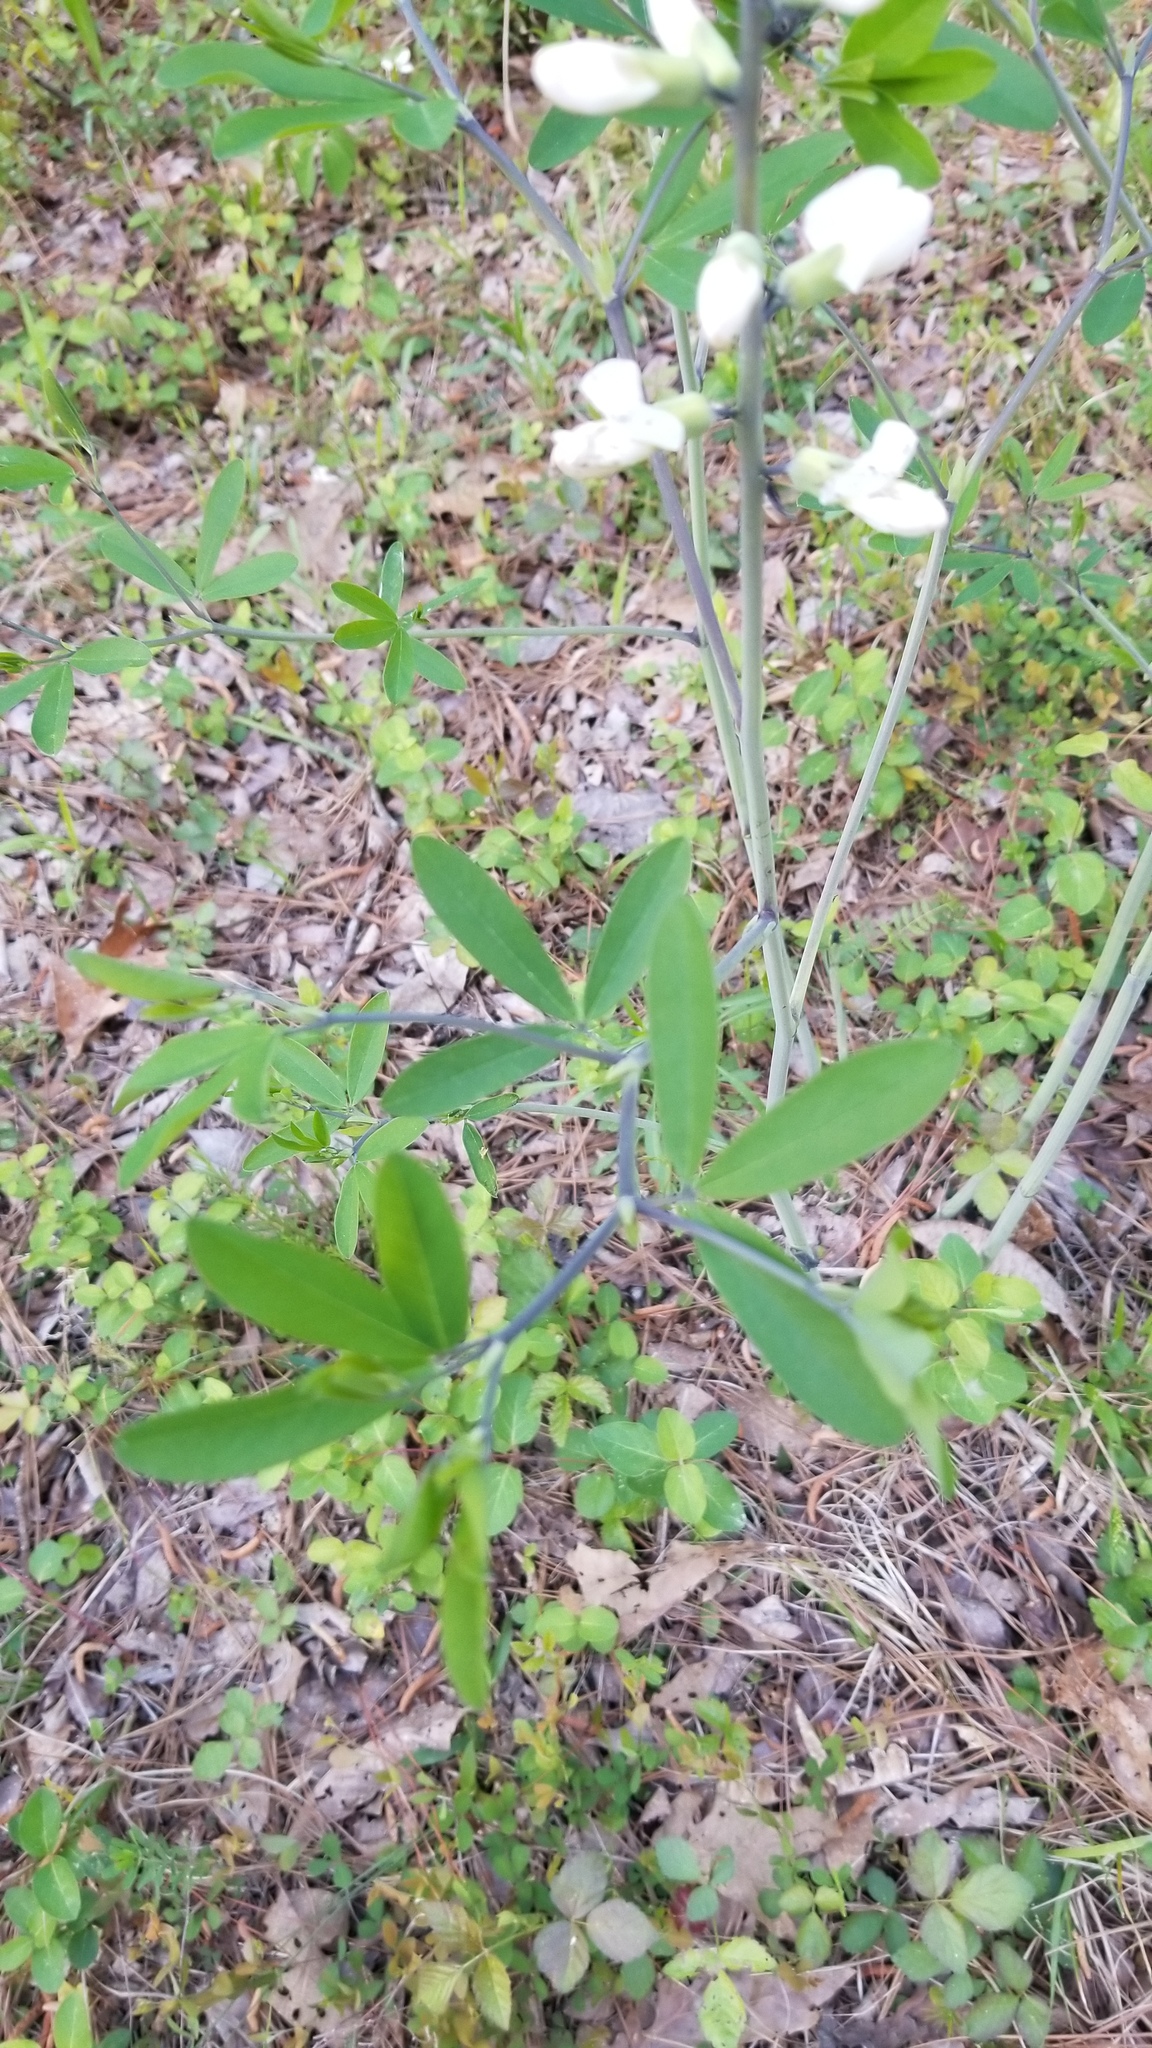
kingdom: Plantae
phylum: Tracheophyta
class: Magnoliopsida
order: Fabales
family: Fabaceae
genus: Baptisia
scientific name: Baptisia alba
